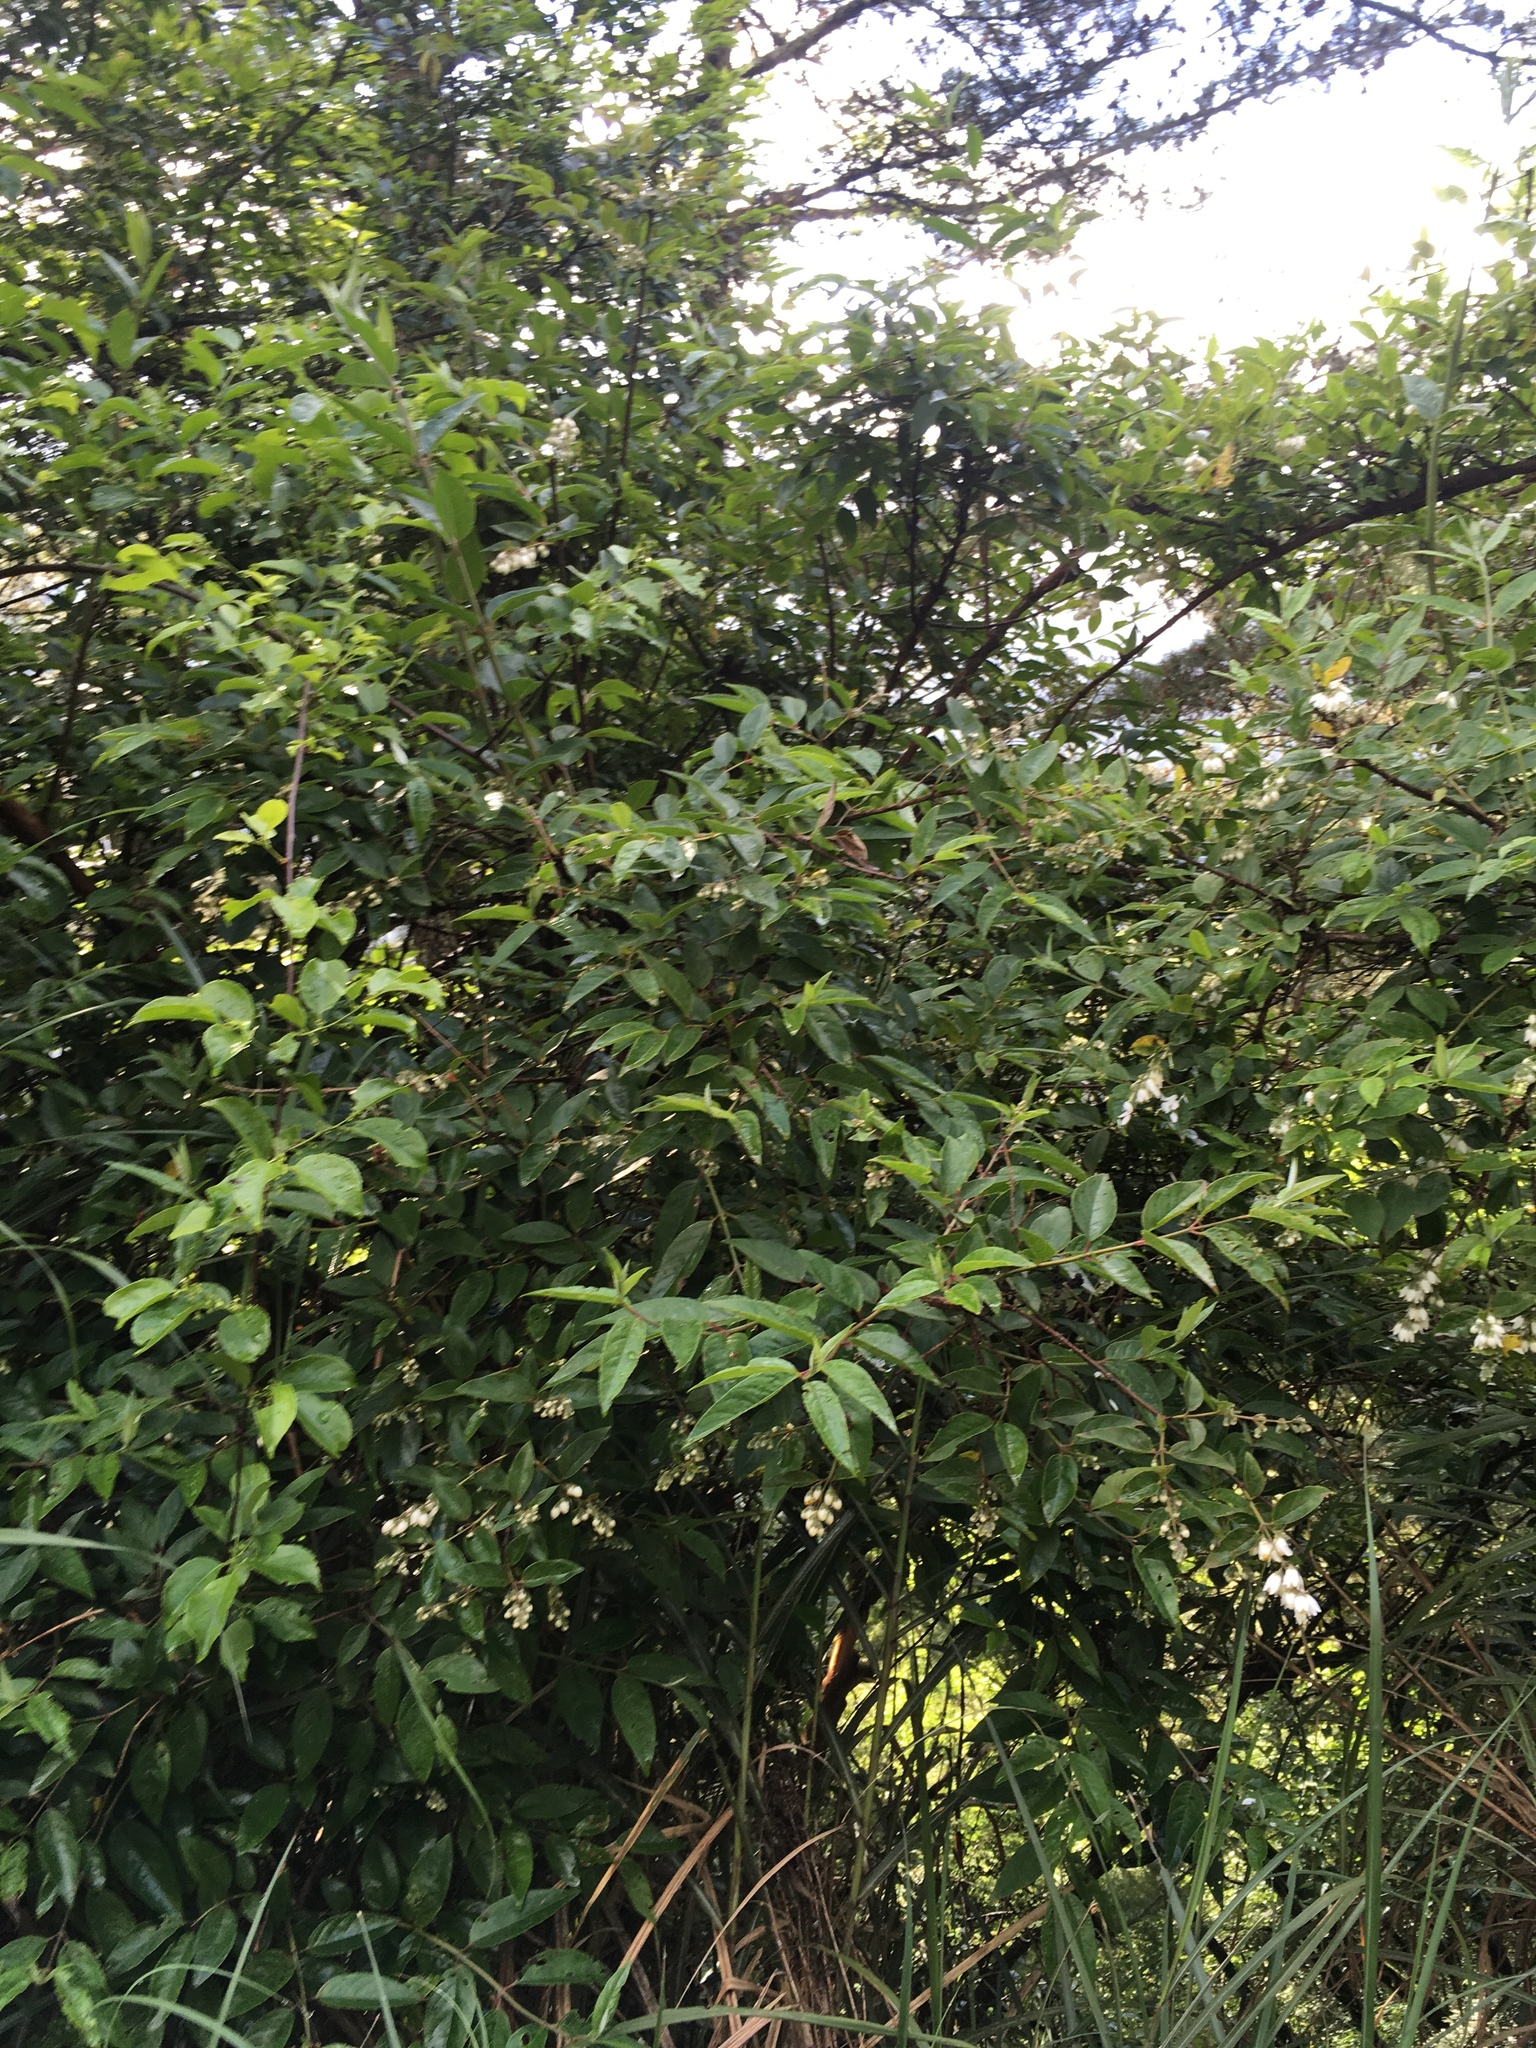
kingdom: Plantae
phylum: Tracheophyta
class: Magnoliopsida
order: Cornales
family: Hydrangeaceae
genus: Deutzia
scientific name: Deutzia pulchra
